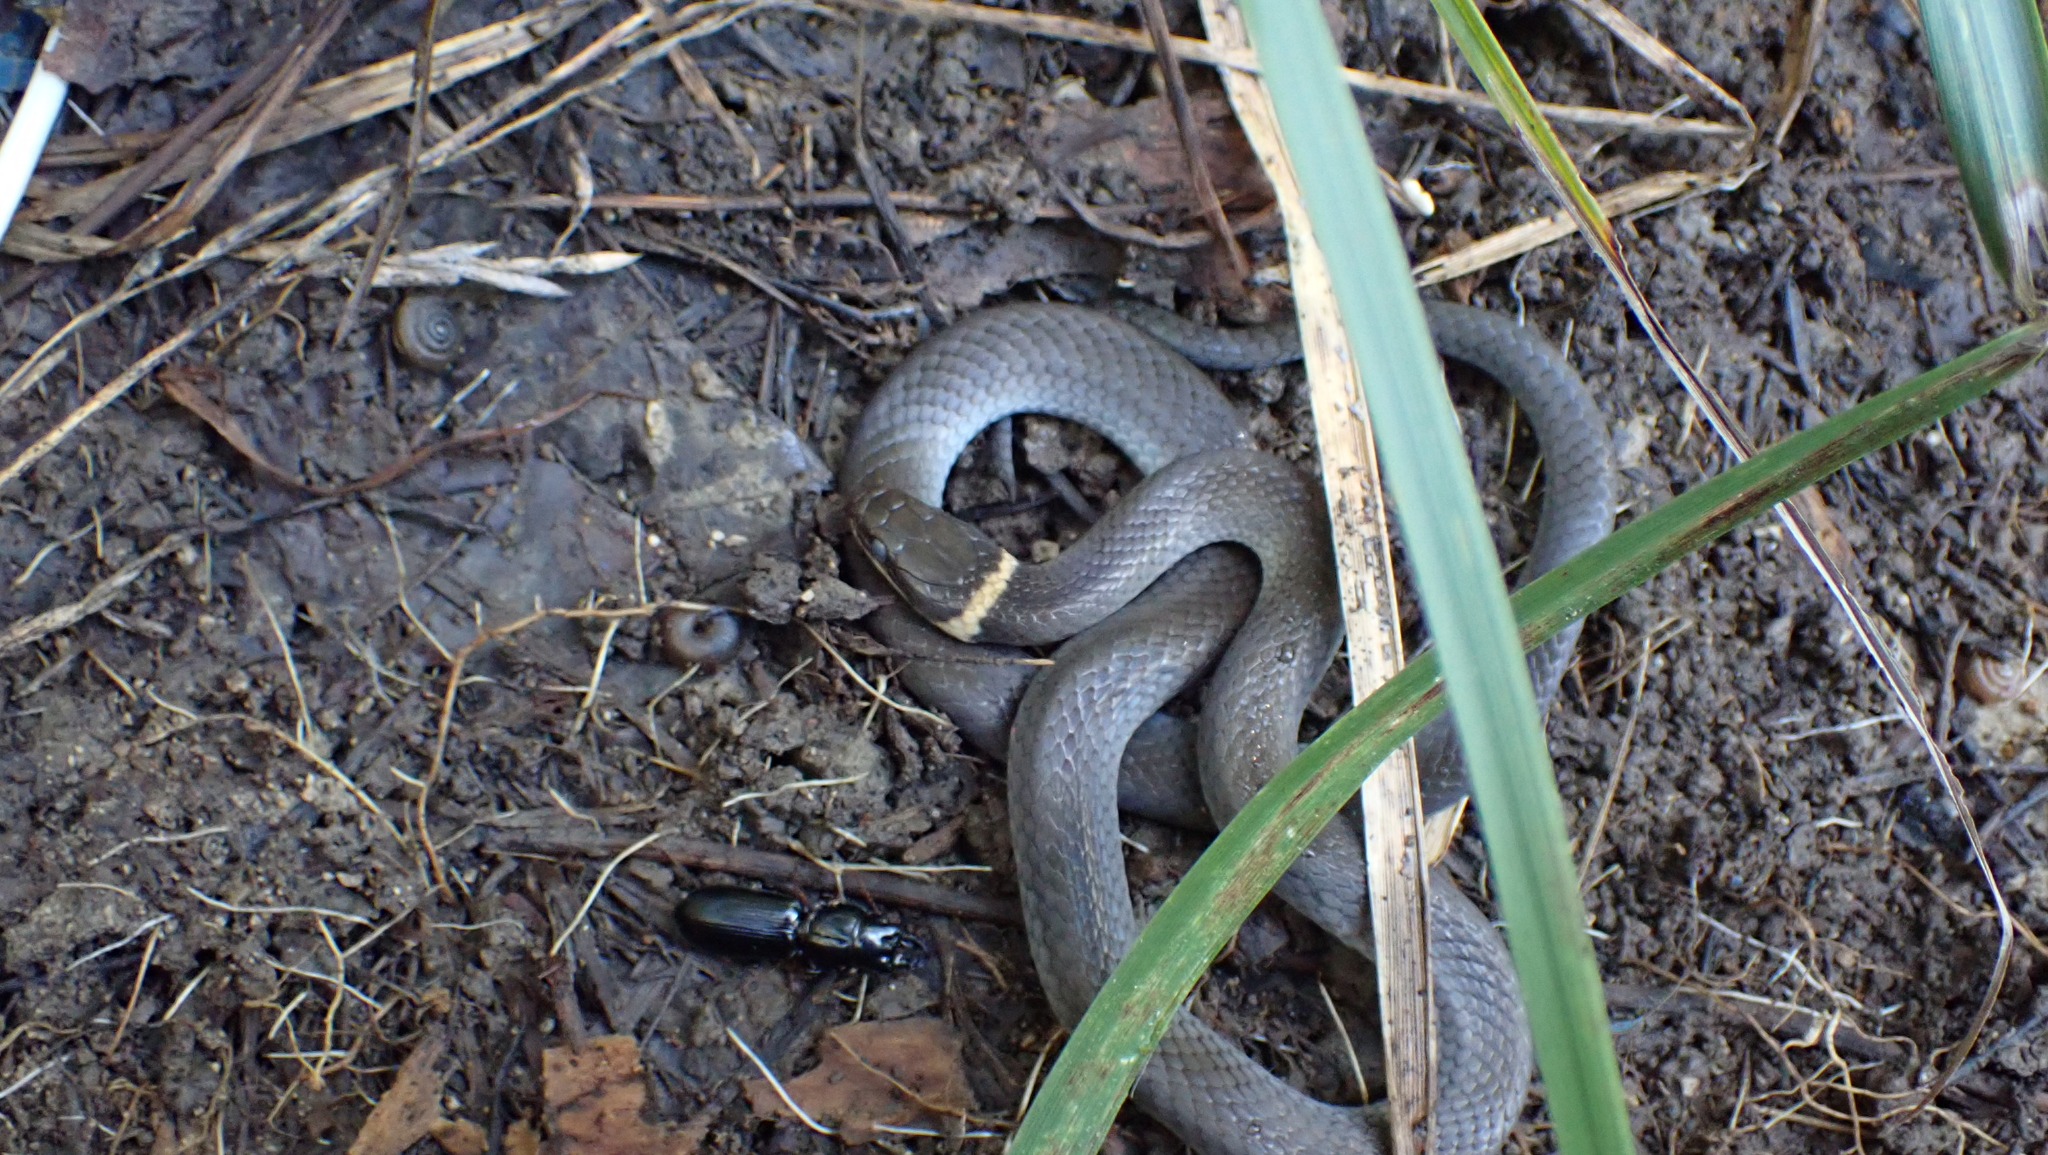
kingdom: Animalia
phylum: Chordata
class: Squamata
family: Colubridae
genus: Diadophis
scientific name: Diadophis punctatus
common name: Ringneck snake
